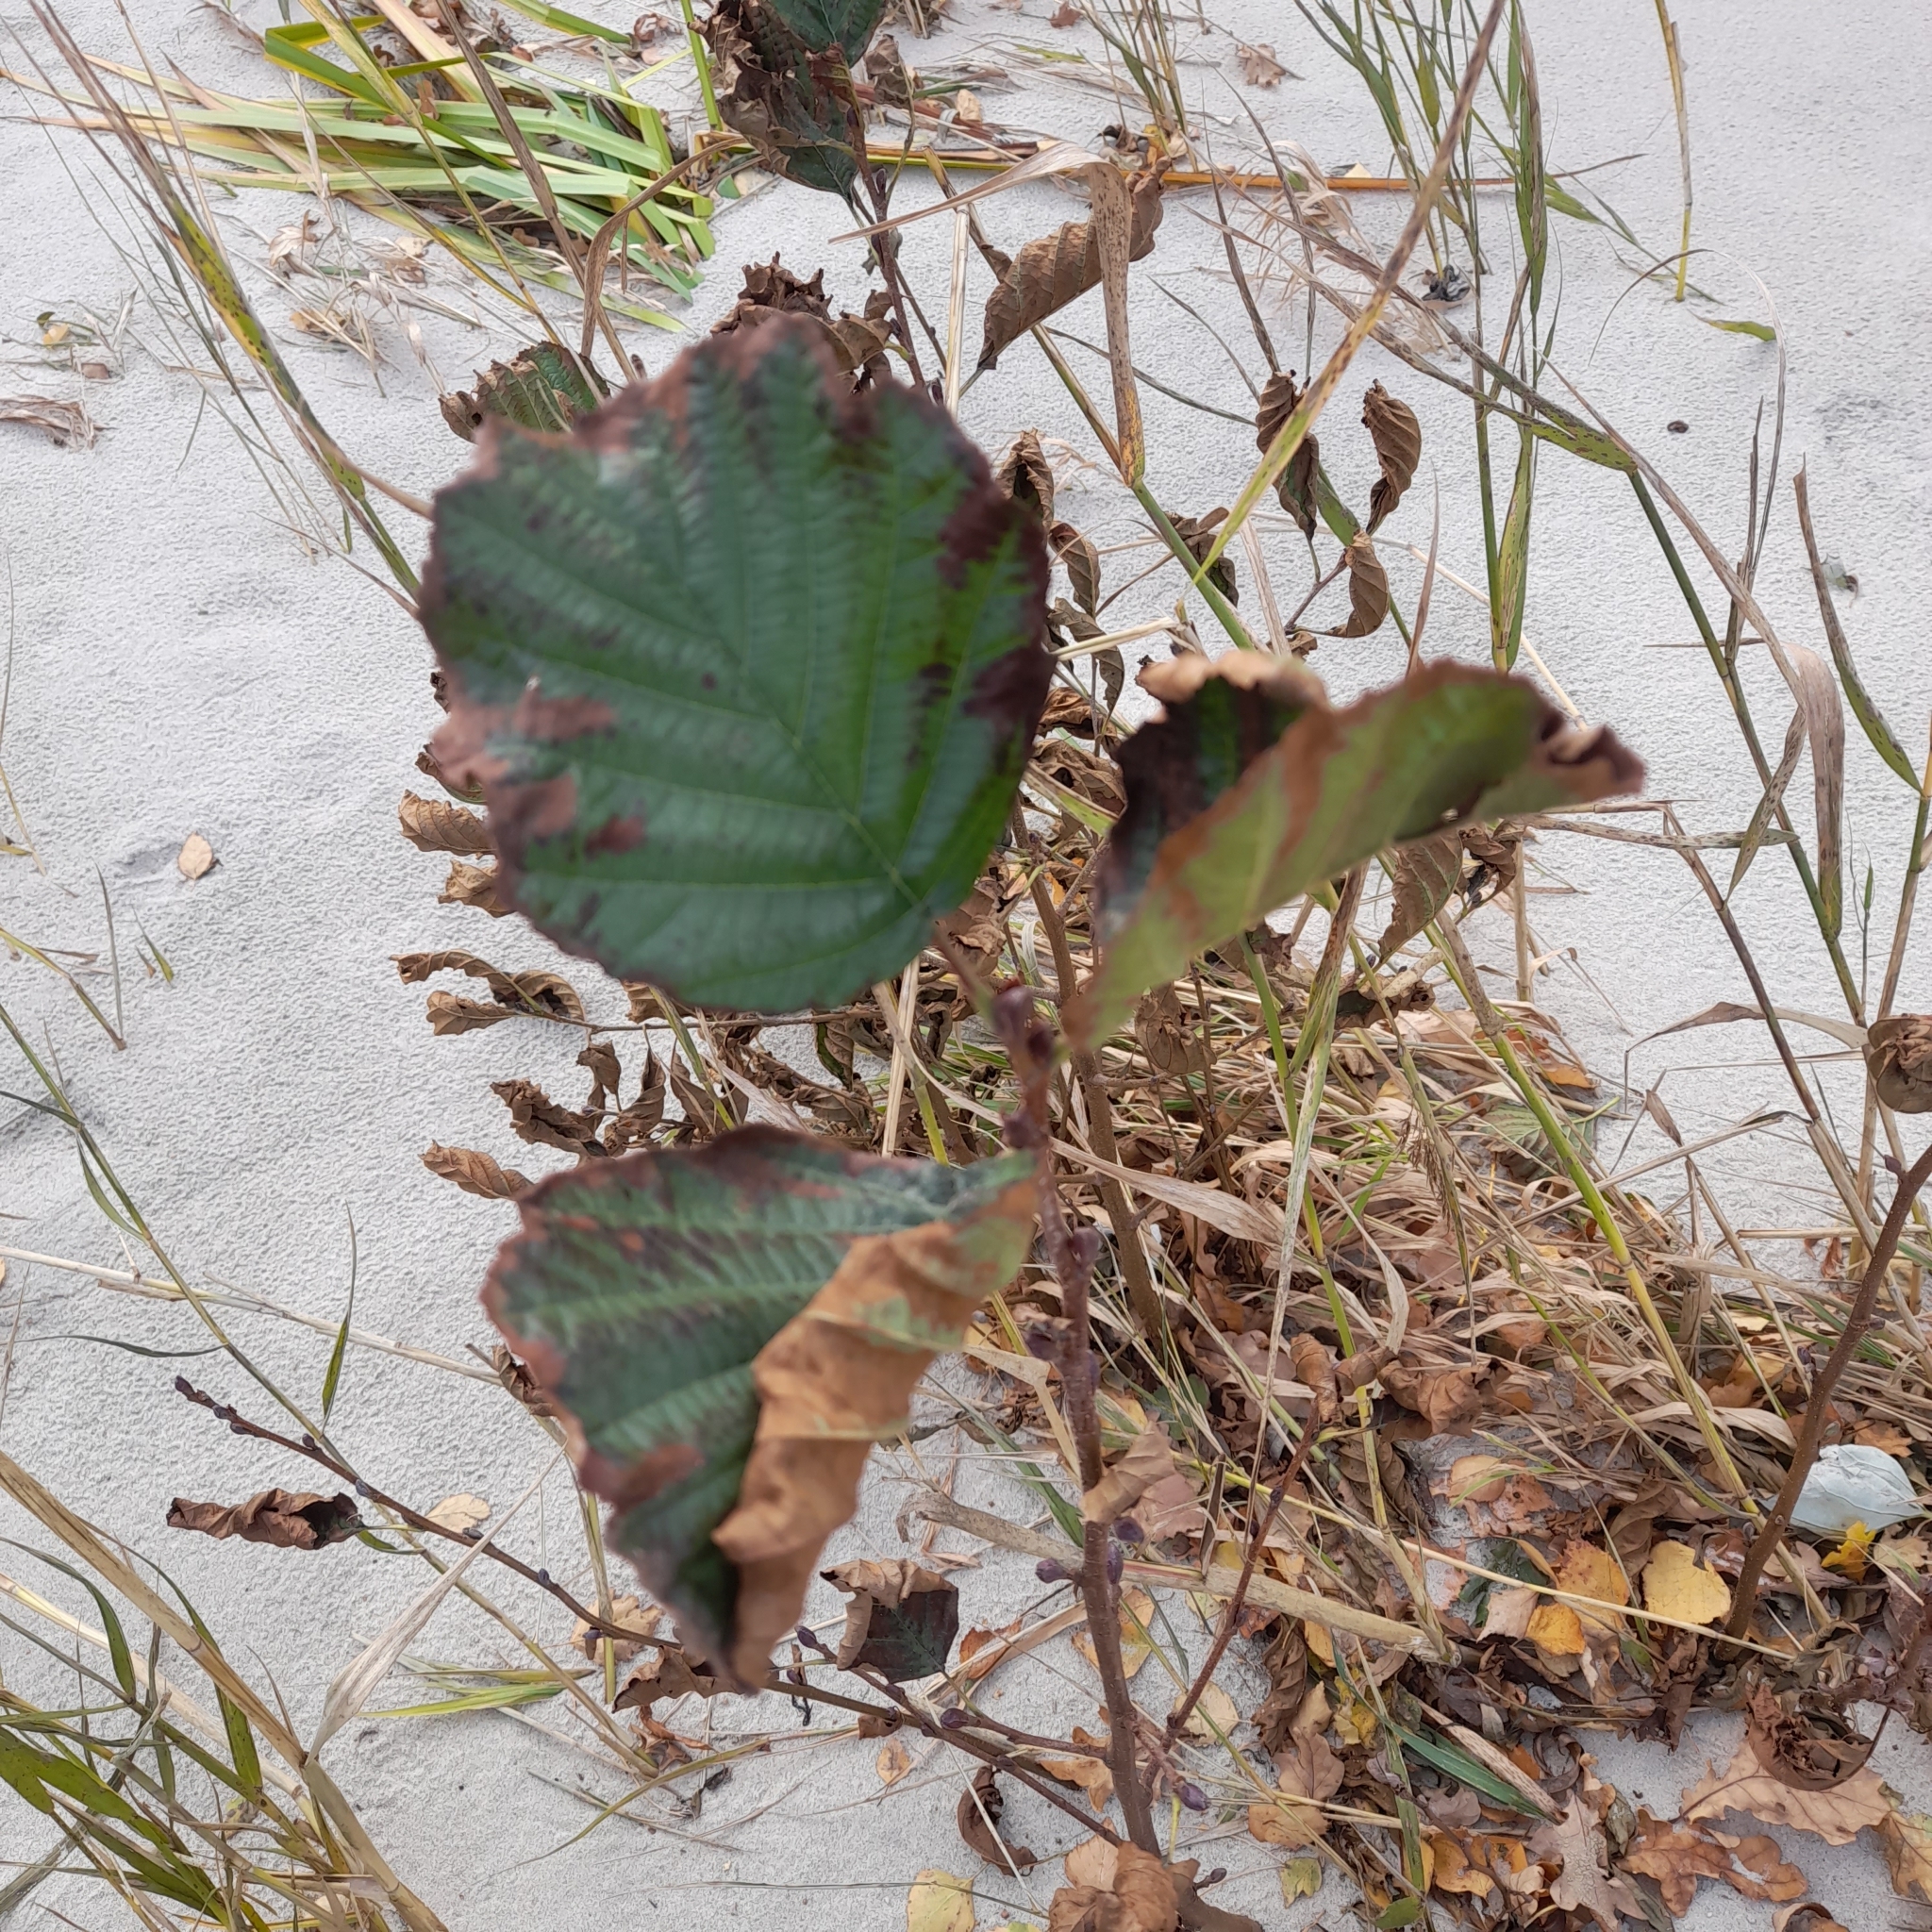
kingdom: Plantae
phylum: Tracheophyta
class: Magnoliopsida
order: Fagales
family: Betulaceae
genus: Alnus
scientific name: Alnus glutinosa
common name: Black alder
